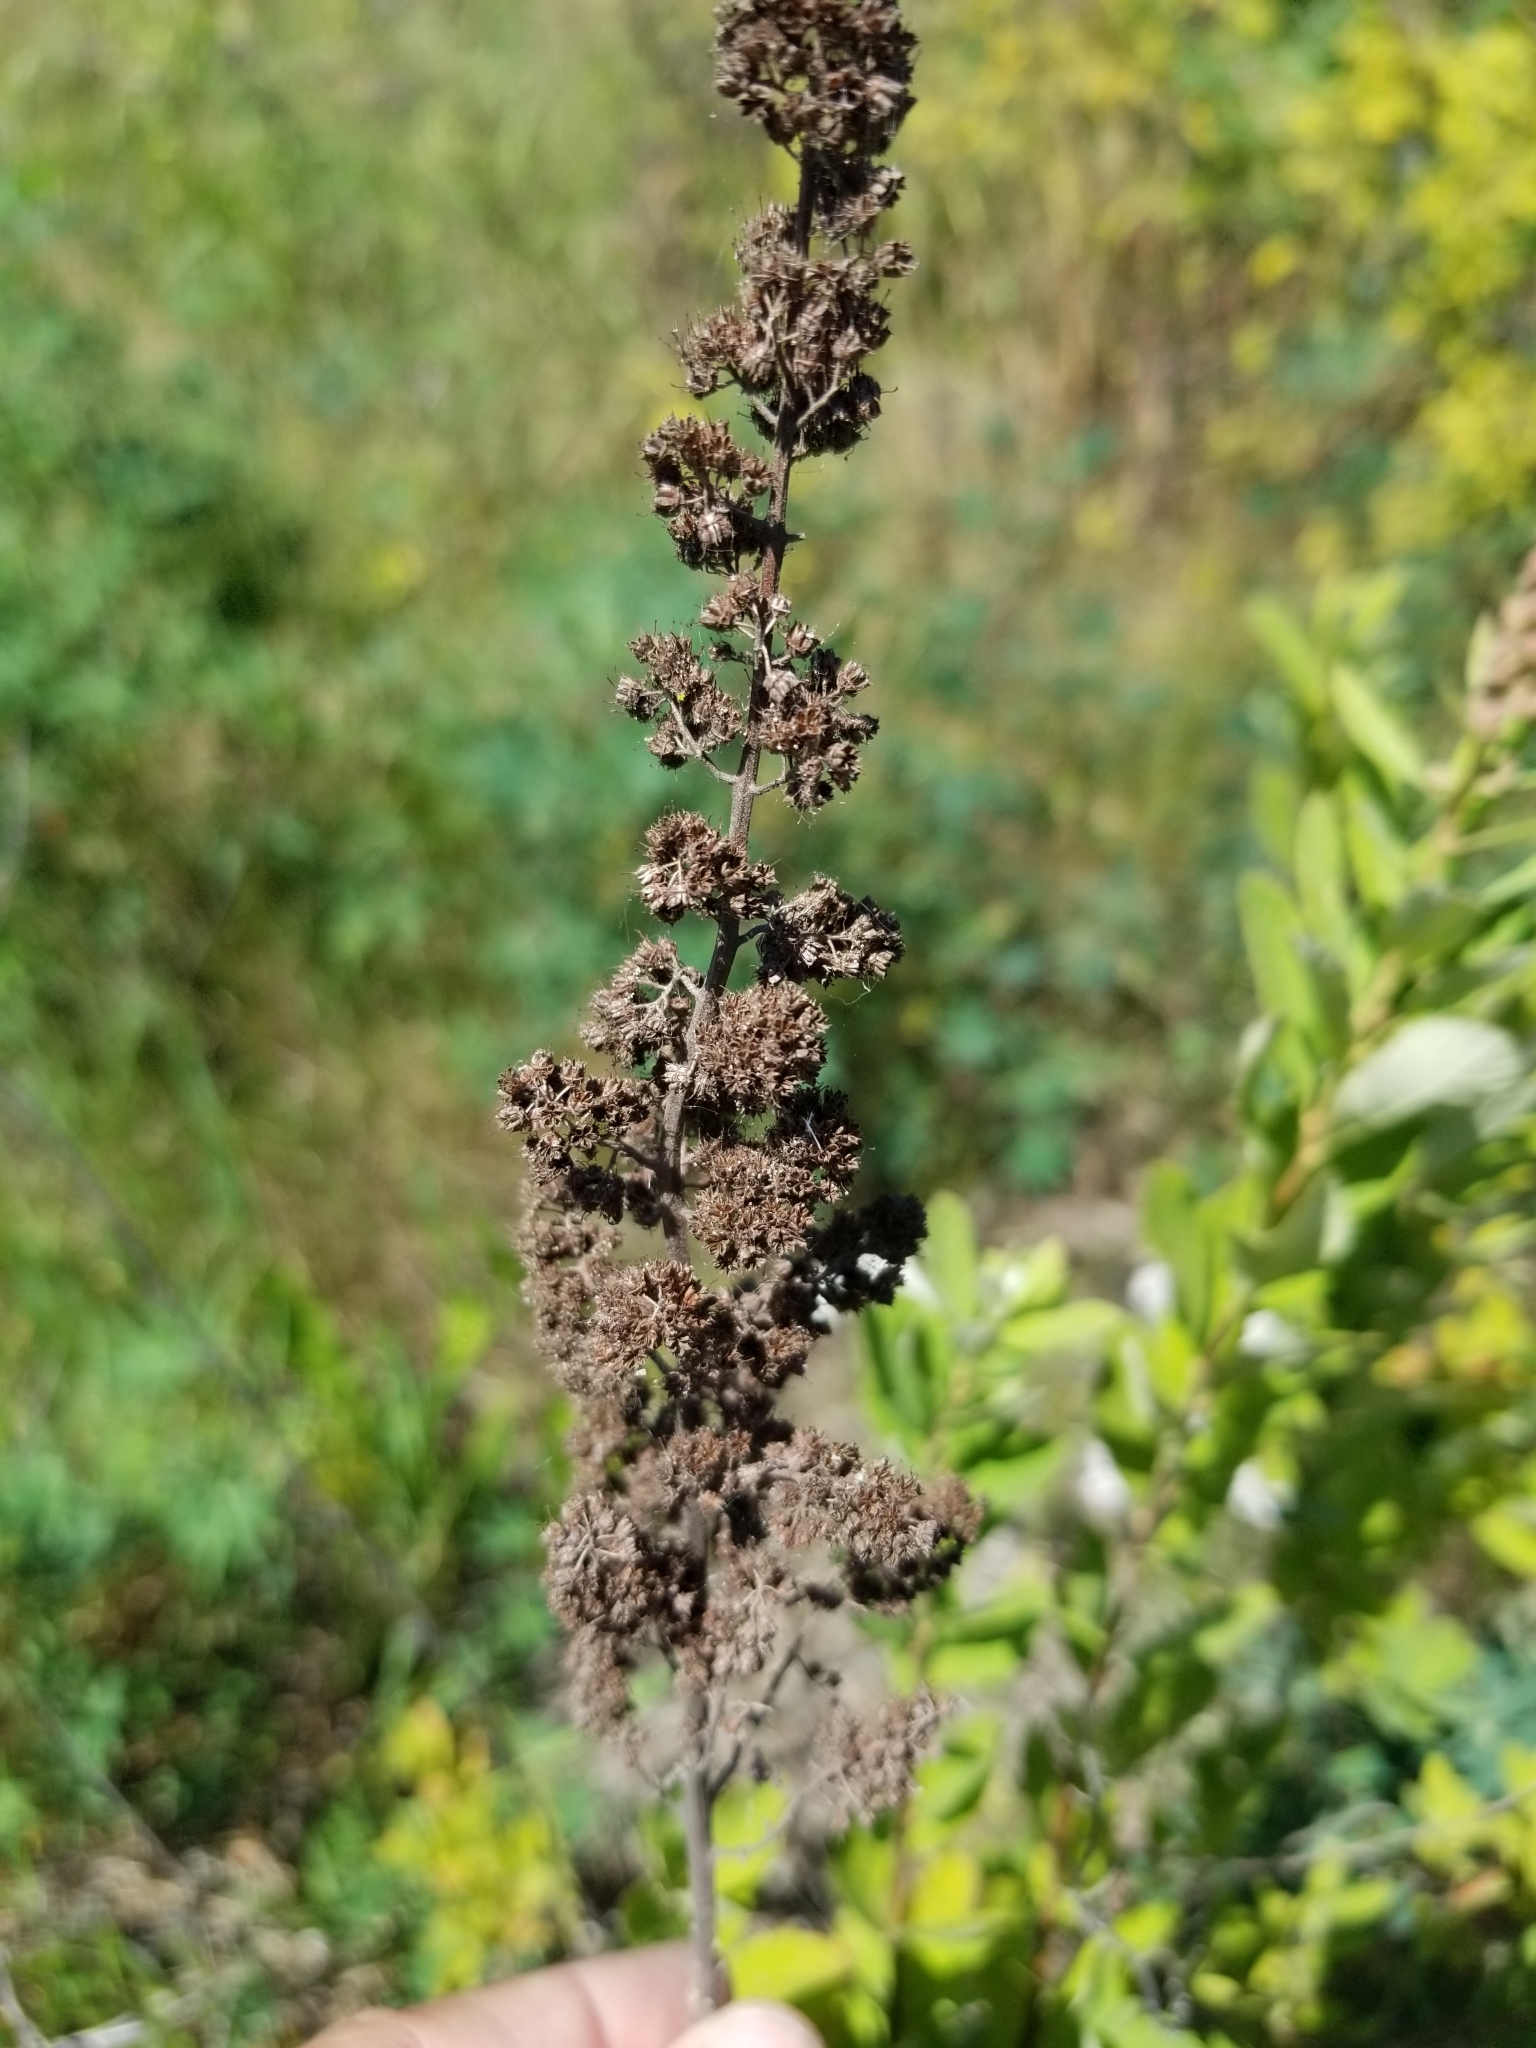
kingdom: Plantae
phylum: Tracheophyta
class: Magnoliopsida
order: Rosales
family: Rosaceae
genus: Spiraea
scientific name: Spiraea douglasii
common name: Steeplebush
